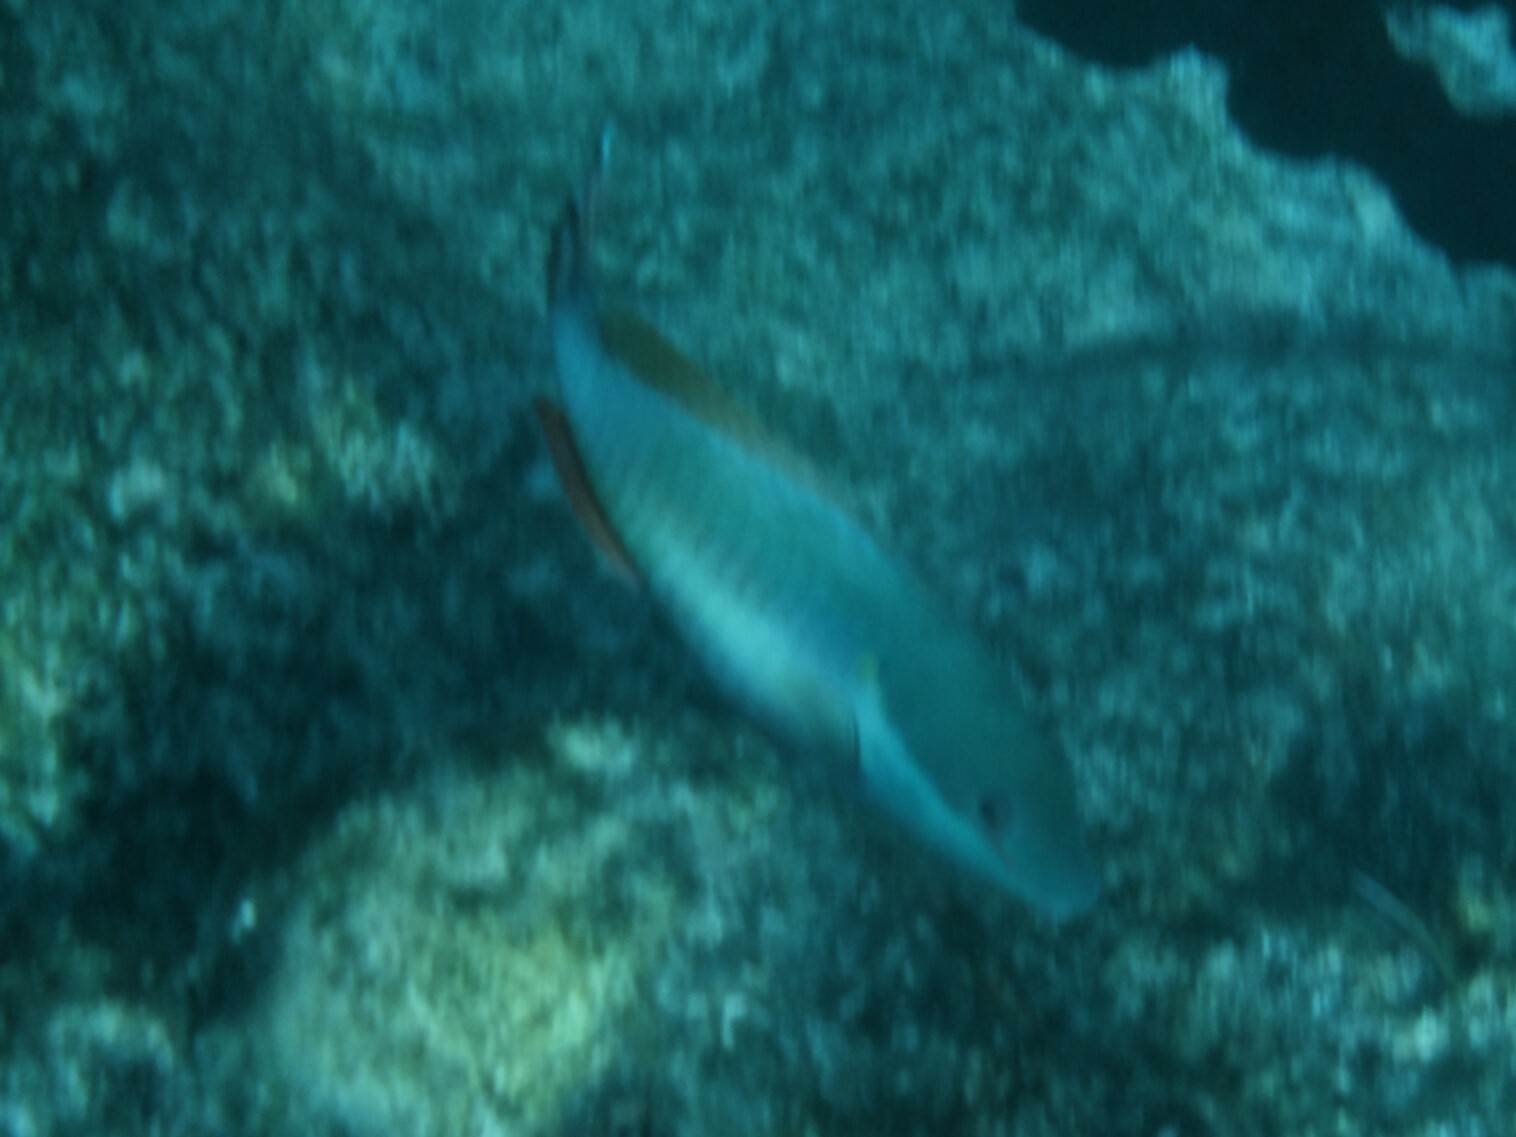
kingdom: Animalia
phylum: Chordata
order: Perciformes
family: Scaridae
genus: Sparisoma
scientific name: Sparisoma aurofrenatum
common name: Redband parrotfish
